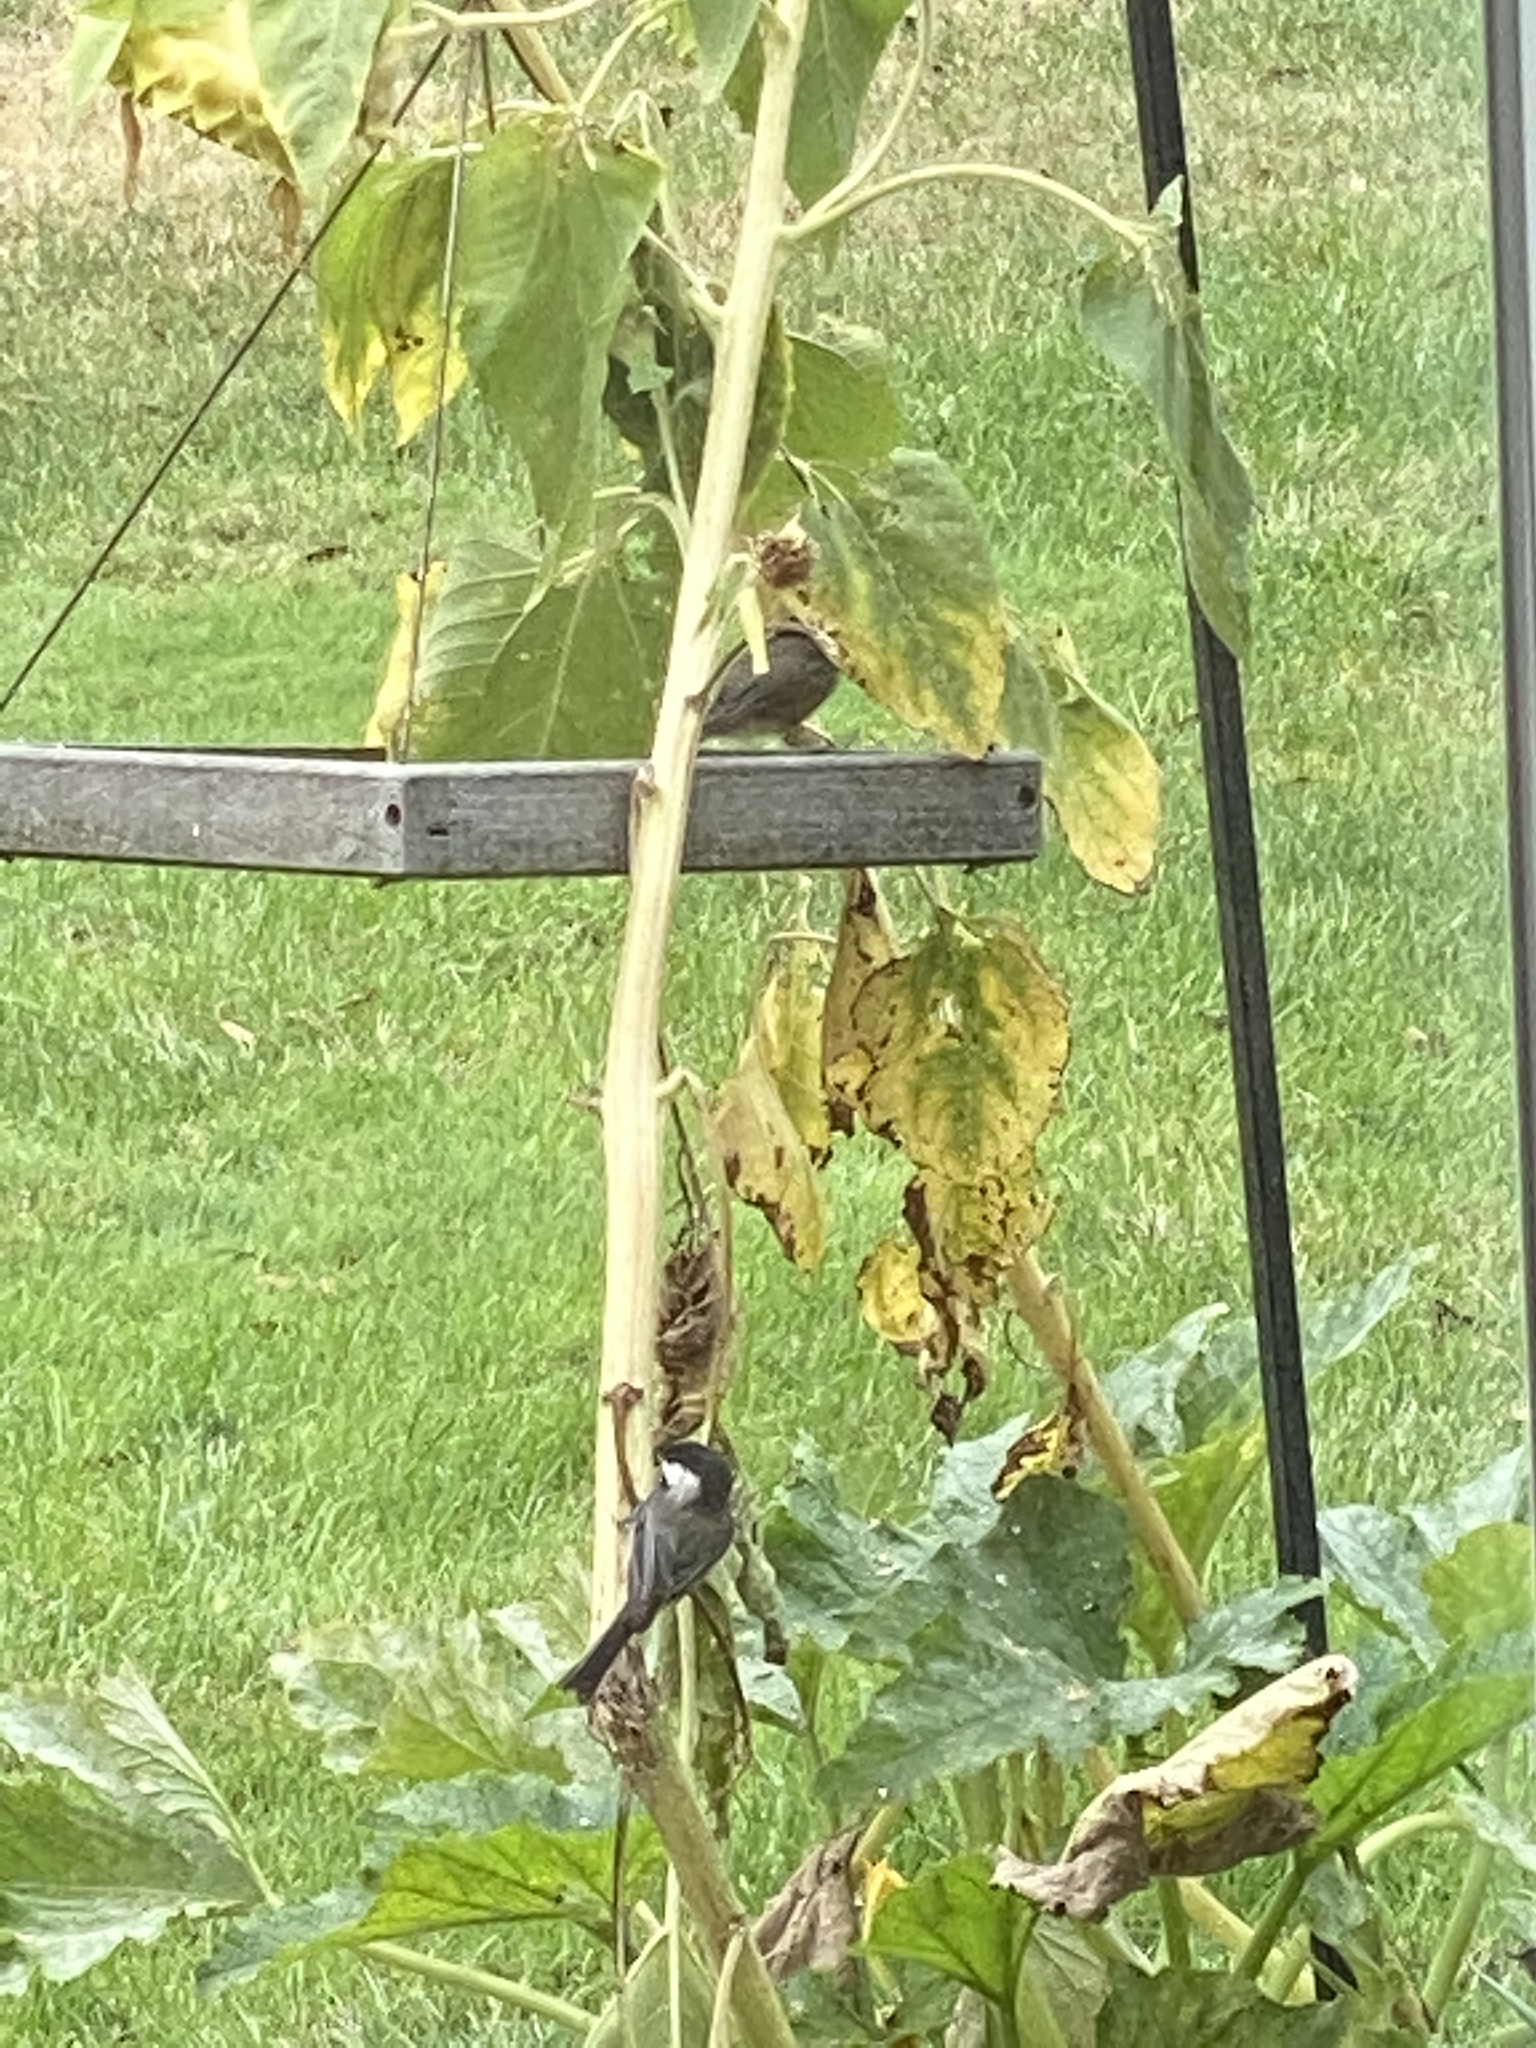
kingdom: Animalia
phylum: Chordata
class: Aves
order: Passeriformes
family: Paridae
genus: Poecile
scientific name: Poecile atricapillus
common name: Black-capped chickadee
